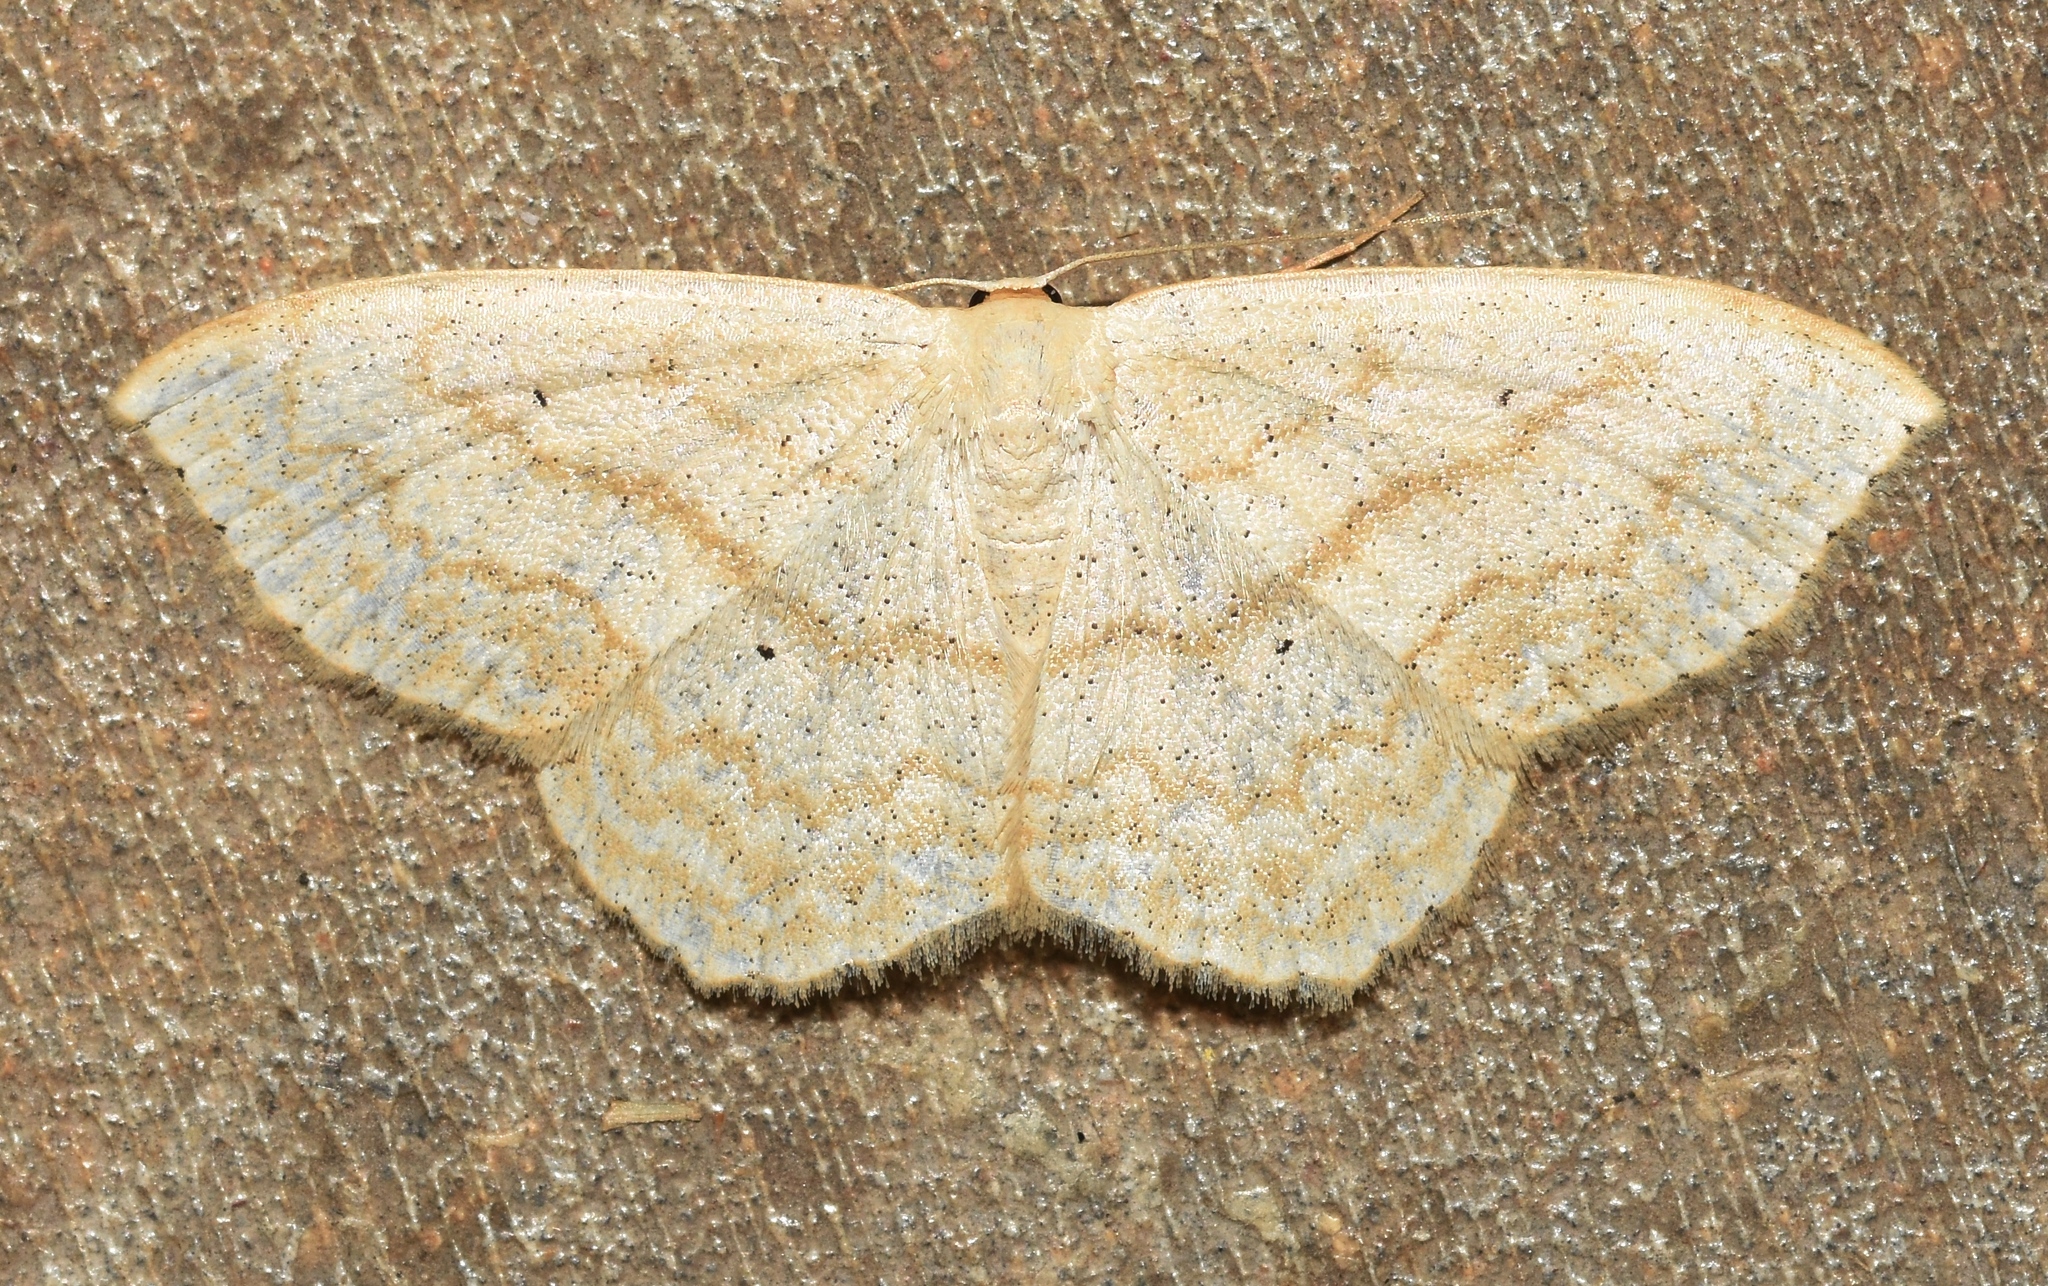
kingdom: Animalia
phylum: Arthropoda
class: Insecta
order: Lepidoptera
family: Geometridae
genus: Scopula
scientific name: Scopula limboundata
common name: Large lace border
